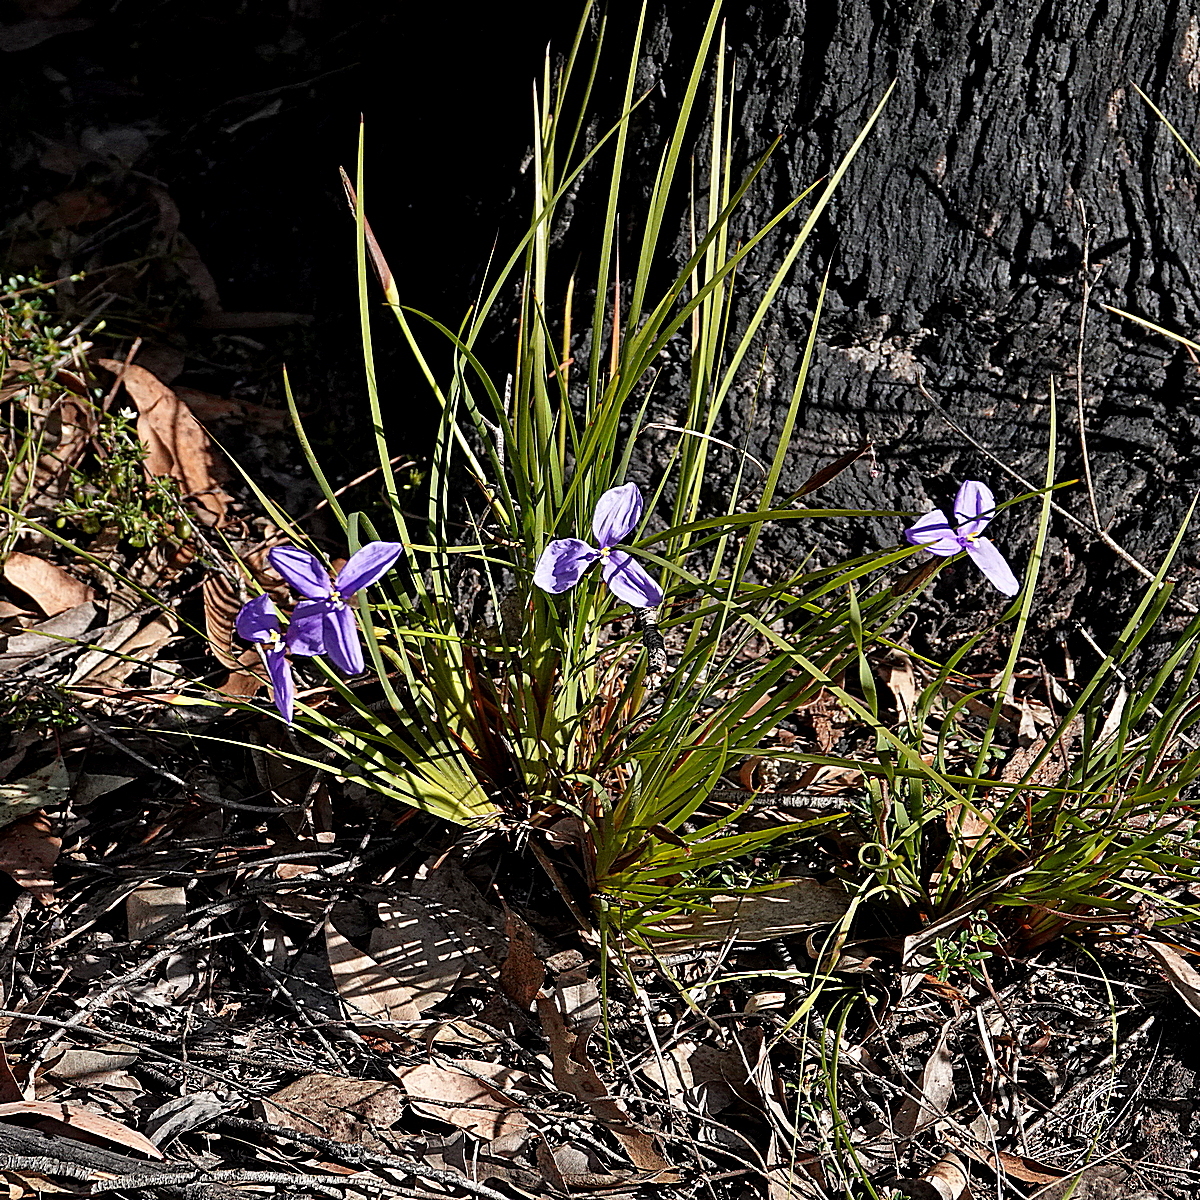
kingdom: Plantae
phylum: Tracheophyta
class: Liliopsida
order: Asparagales
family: Iridaceae
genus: Patersonia
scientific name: Patersonia glabrata
